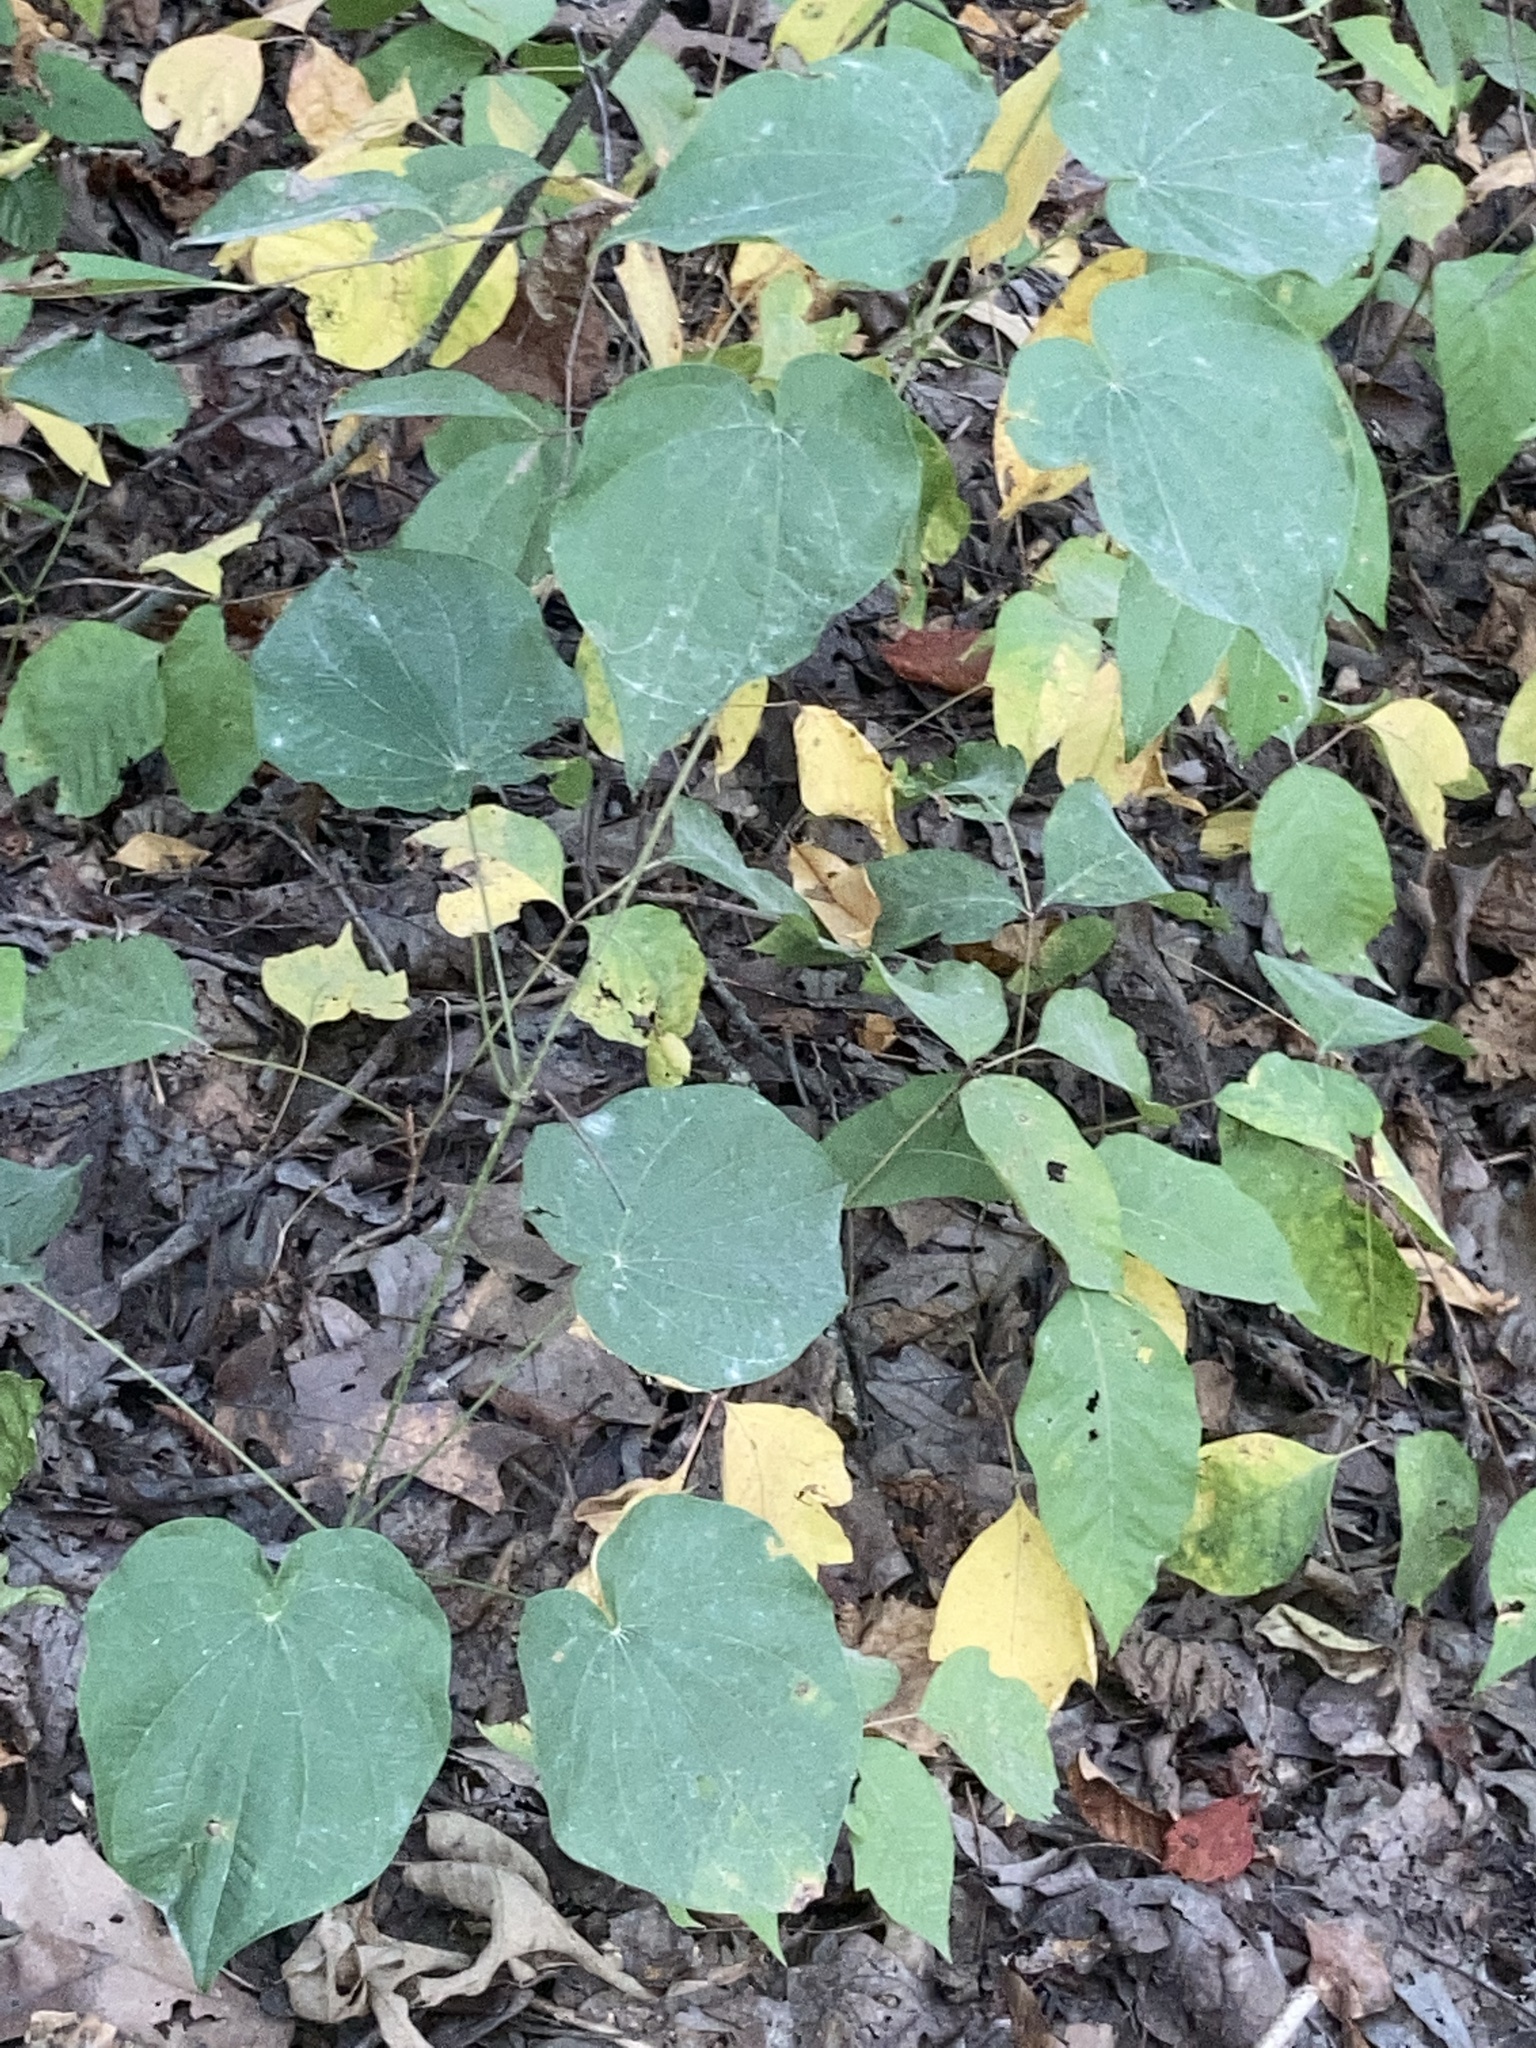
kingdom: Plantae
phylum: Tracheophyta
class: Magnoliopsida
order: Fabales
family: Fabaceae
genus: Cercis
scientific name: Cercis canadensis
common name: Eastern redbud
